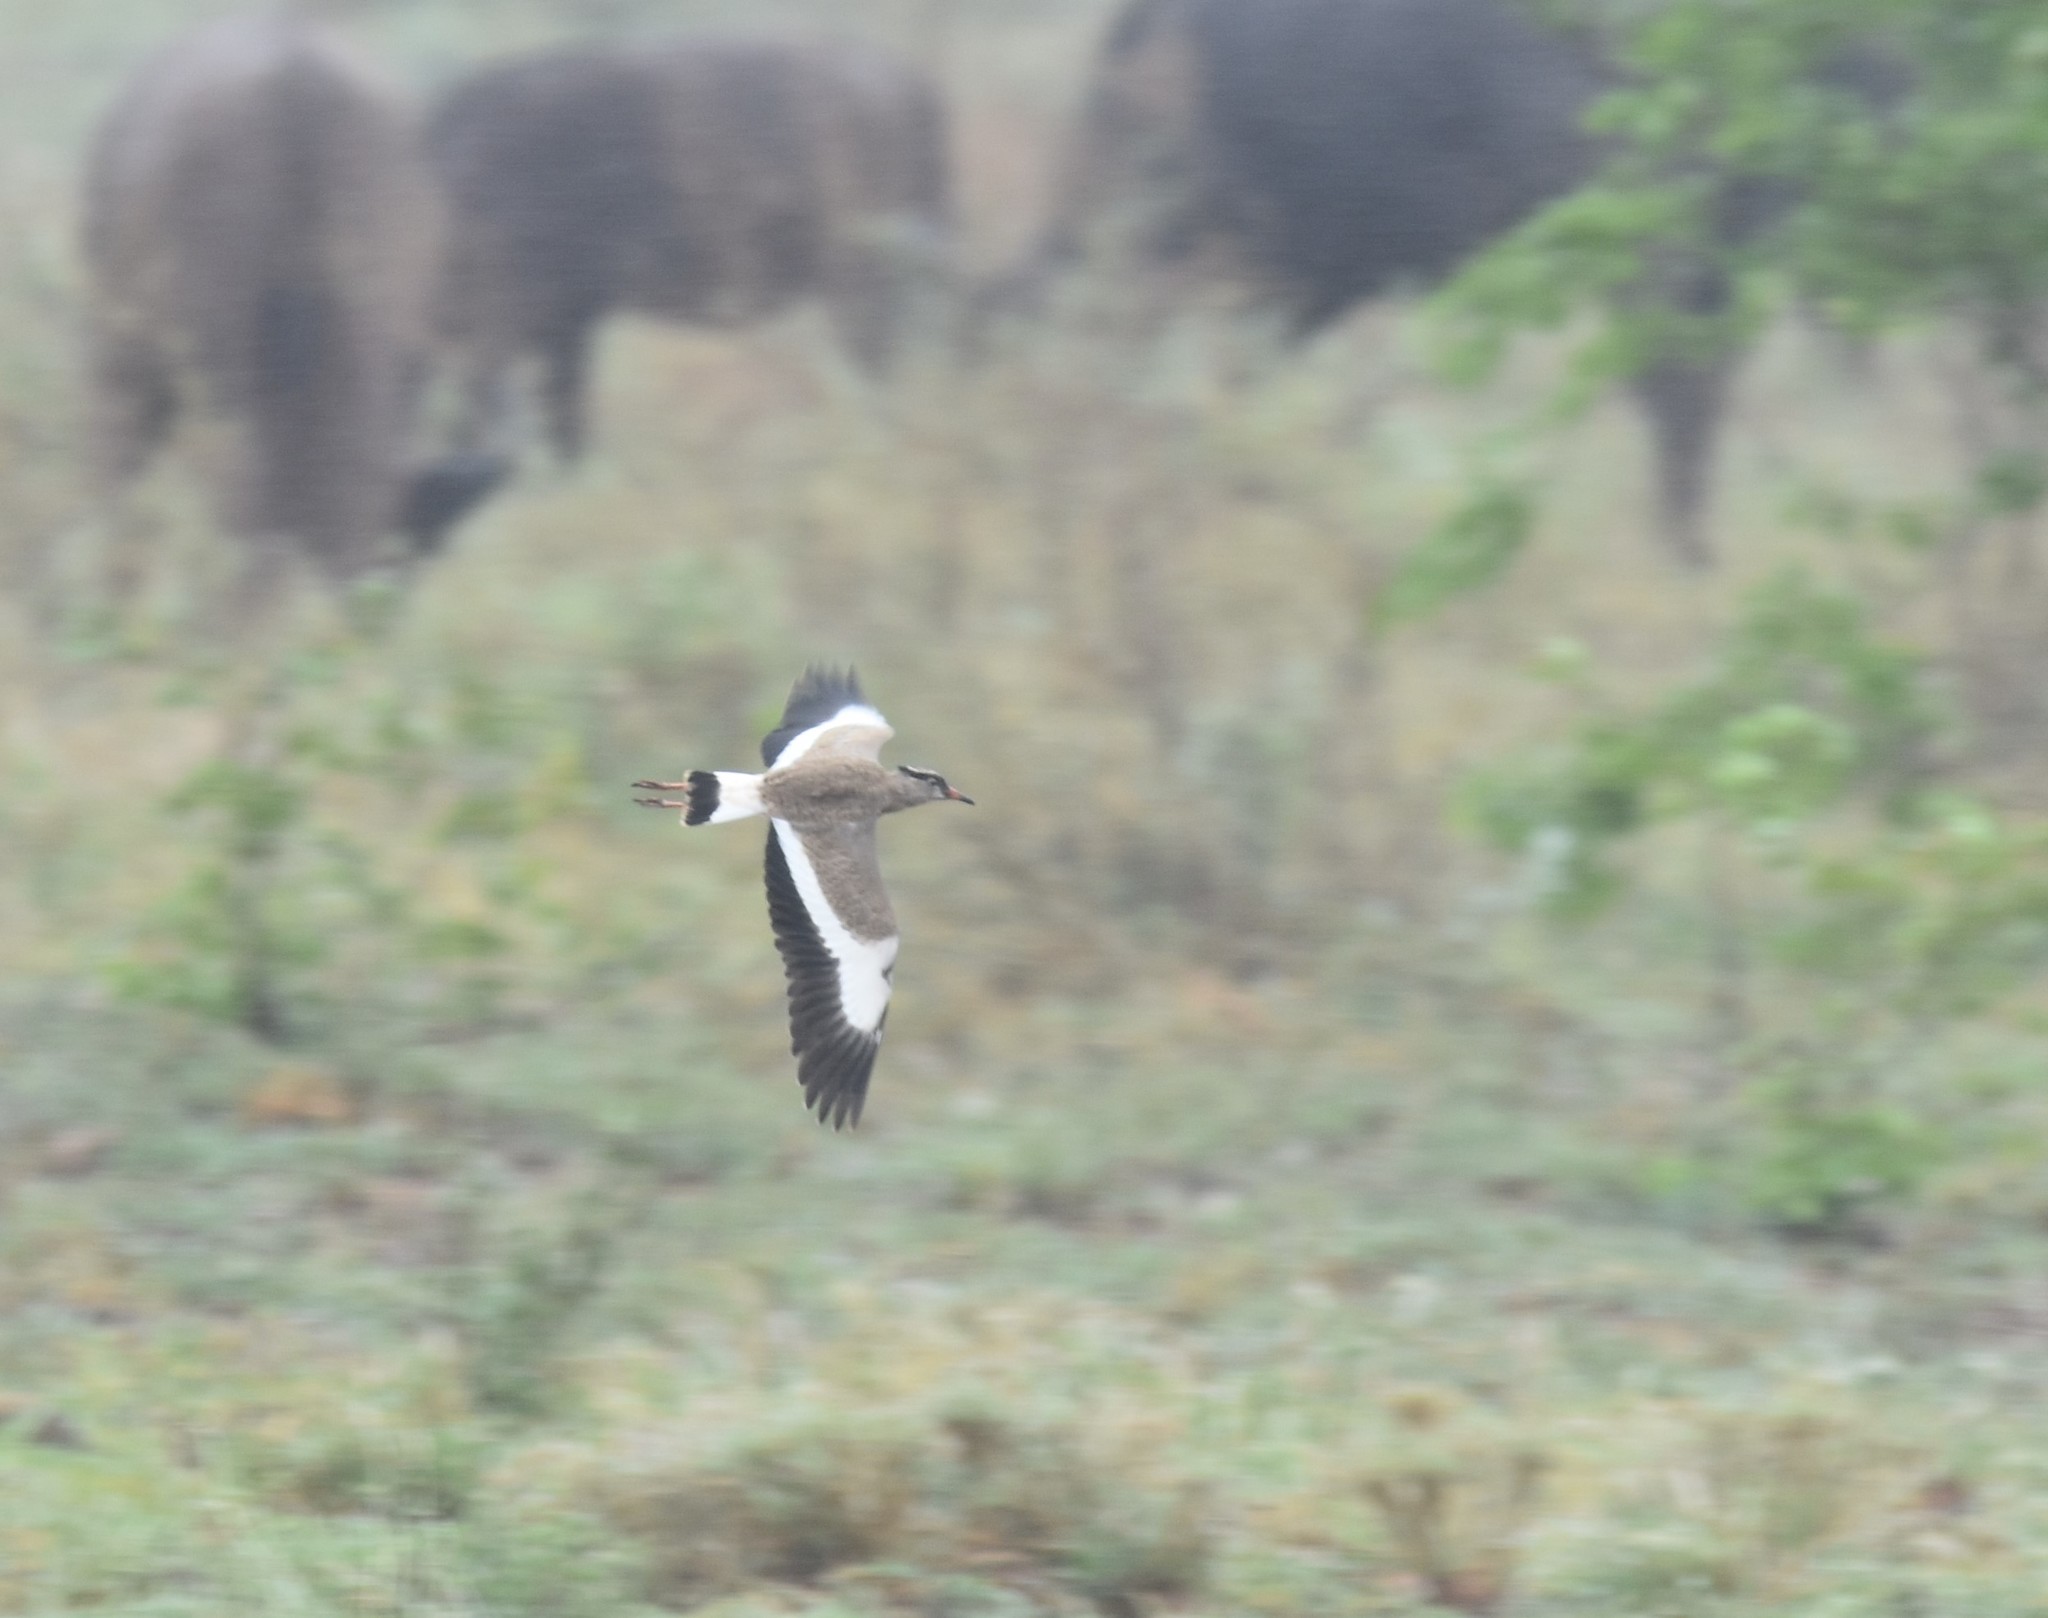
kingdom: Animalia
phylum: Chordata
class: Aves
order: Charadriiformes
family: Charadriidae
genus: Vanellus
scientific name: Vanellus coronatus
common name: Crowned lapwing
